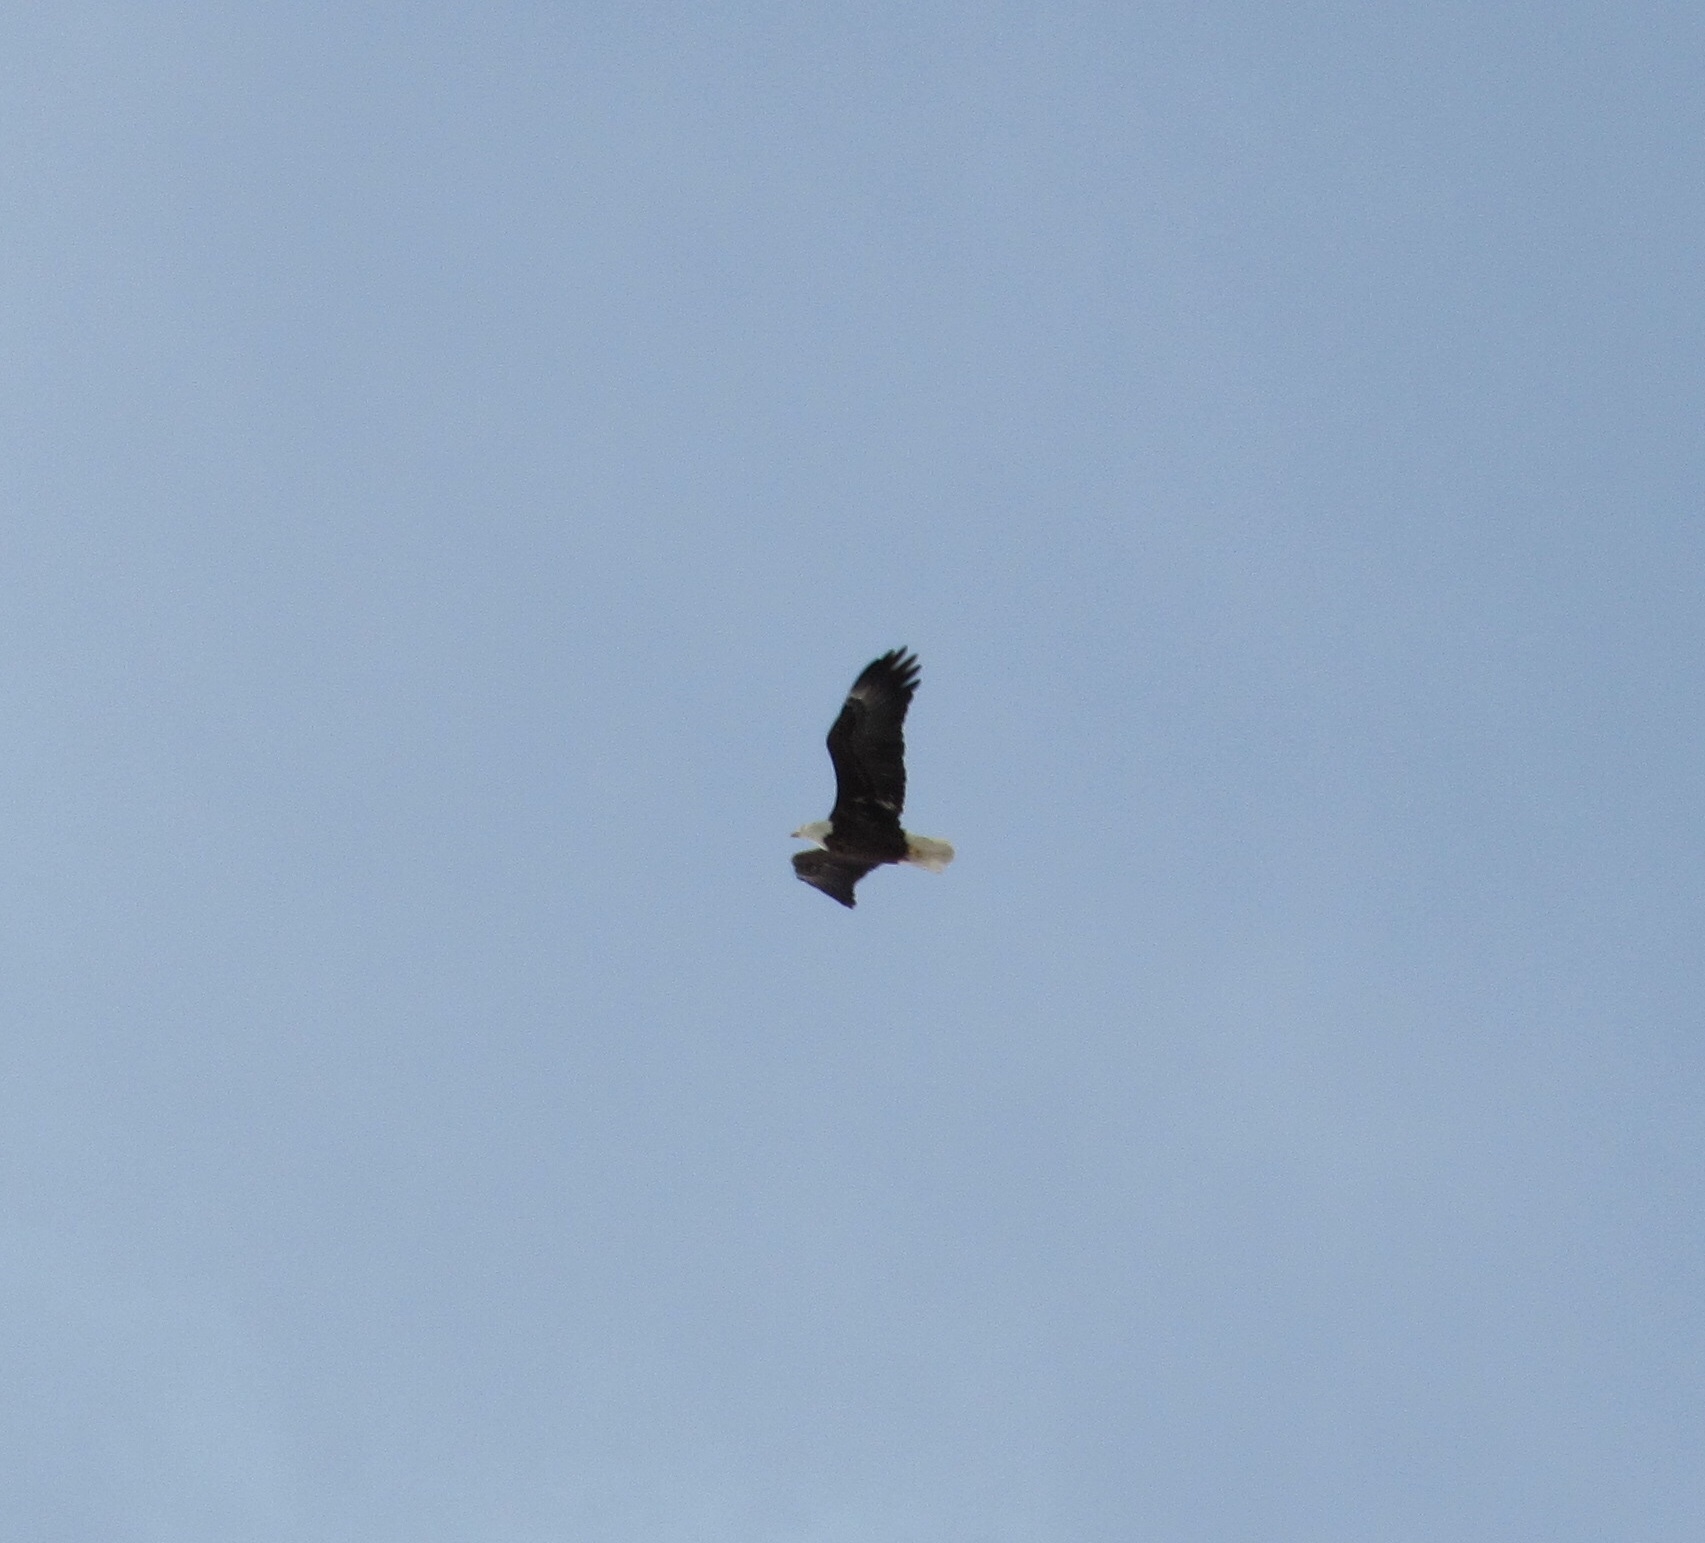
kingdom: Animalia
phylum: Chordata
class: Aves
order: Accipitriformes
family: Accipitridae
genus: Haliaeetus
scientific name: Haliaeetus leucocephalus
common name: Bald eagle
